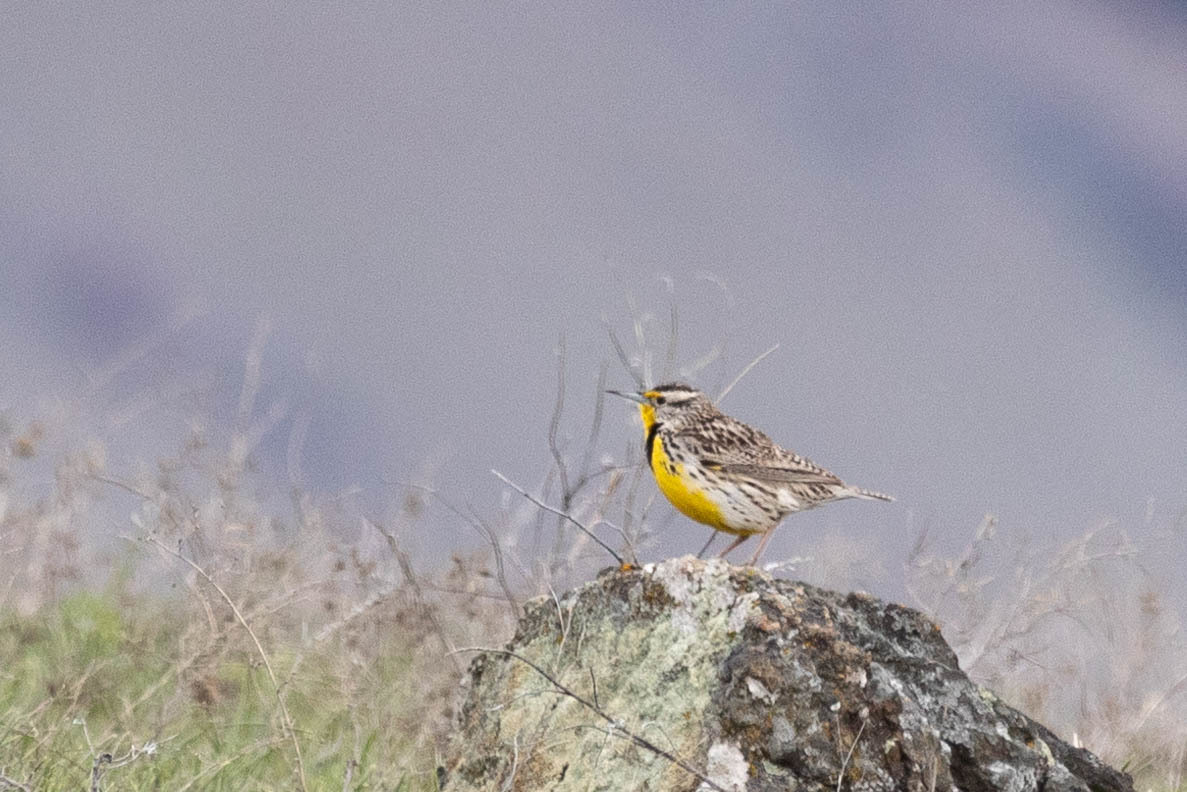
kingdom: Animalia
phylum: Chordata
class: Aves
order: Passeriformes
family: Icteridae
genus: Sturnella
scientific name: Sturnella neglecta
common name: Western meadowlark
